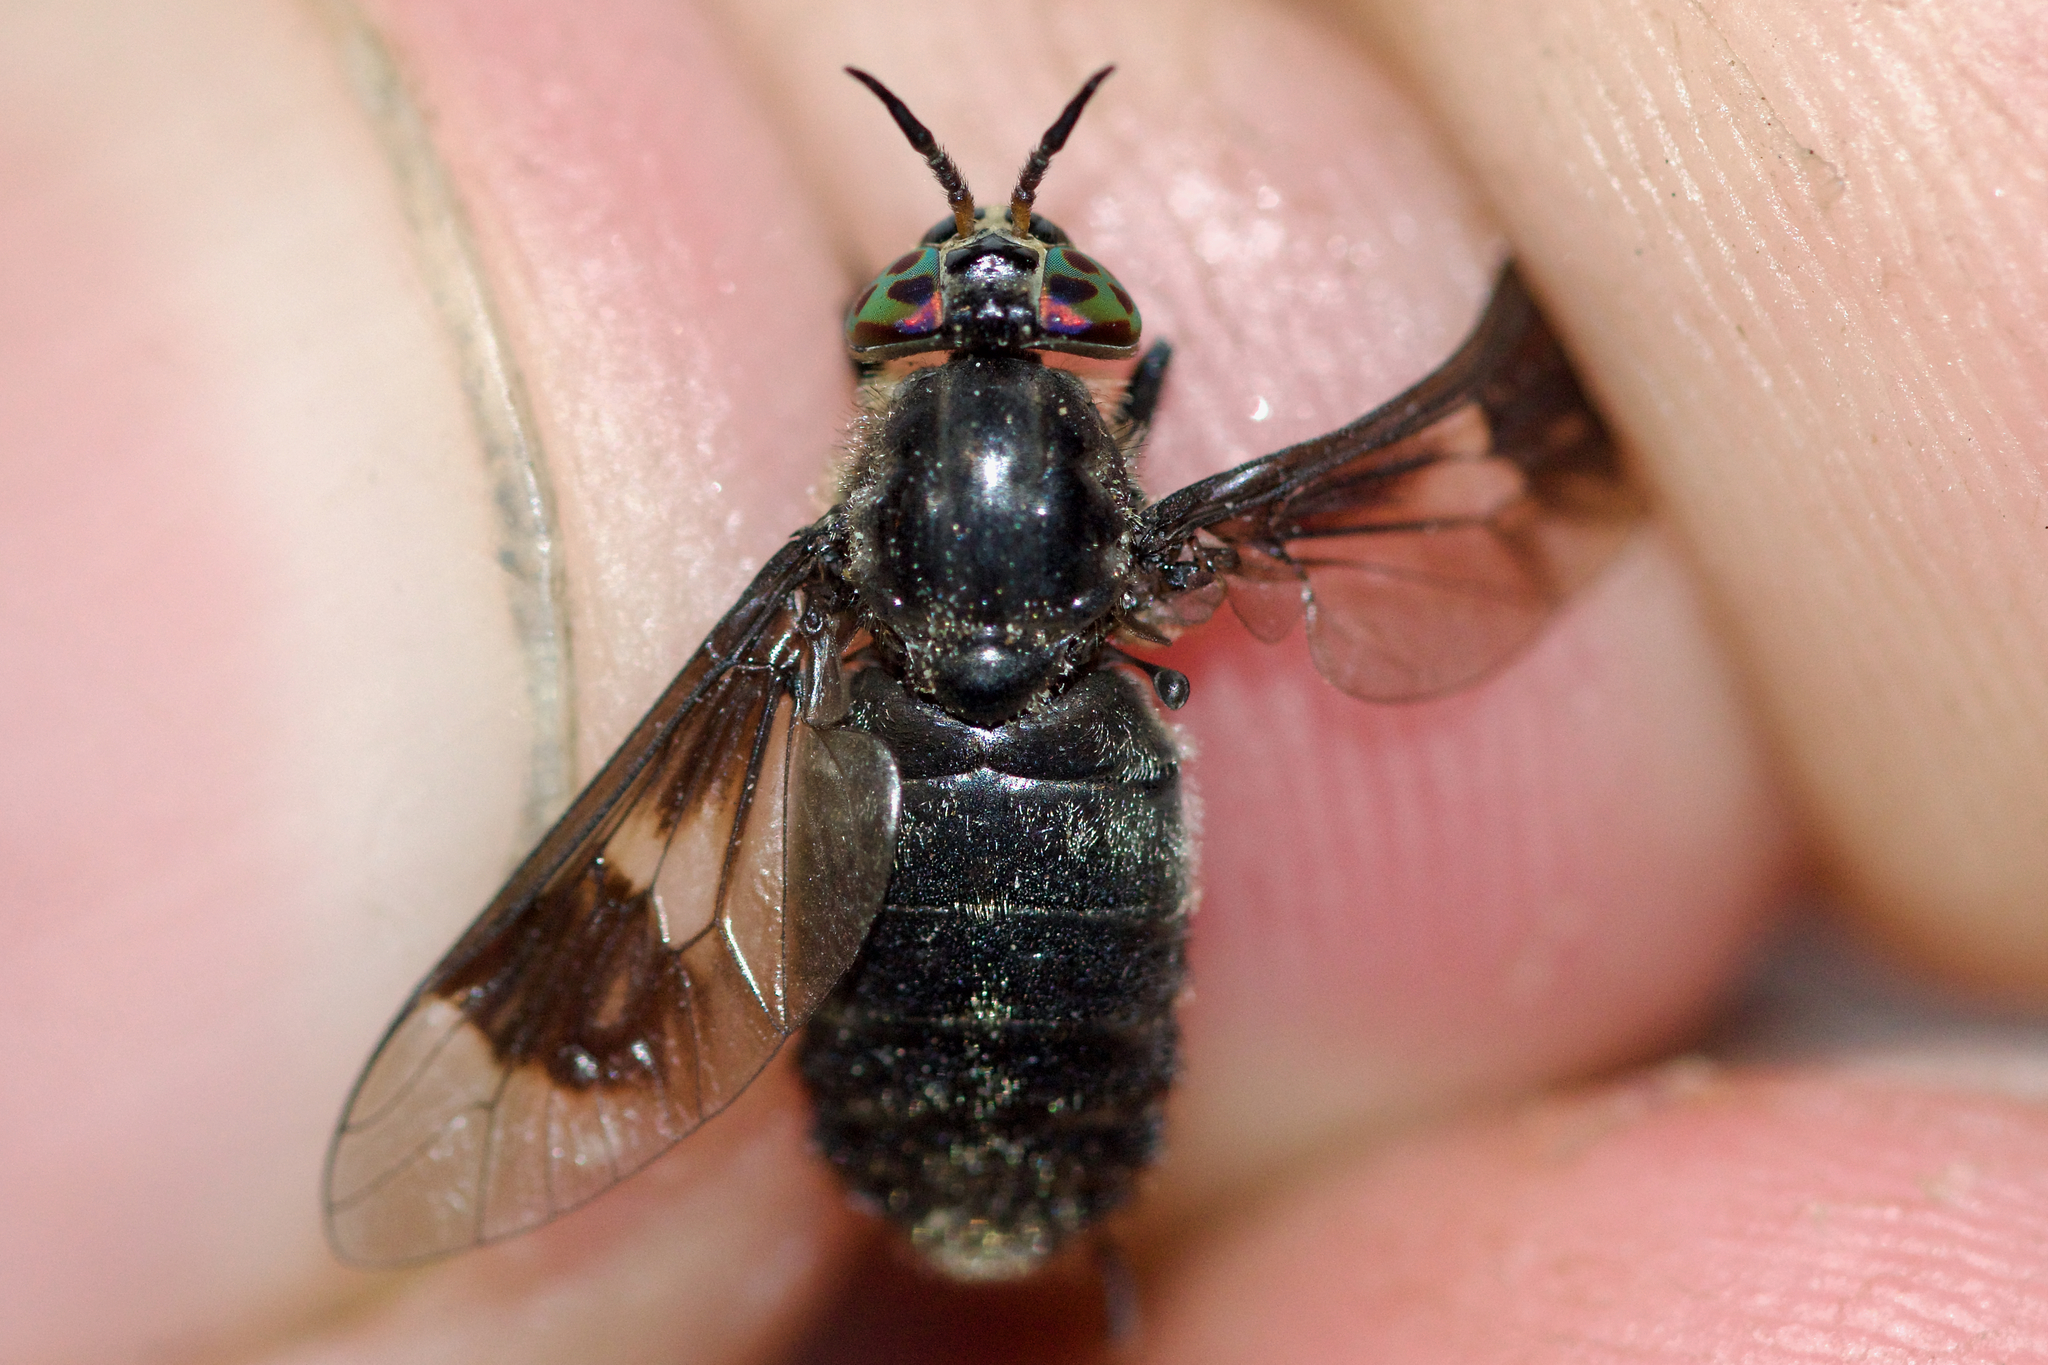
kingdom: Animalia
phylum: Arthropoda
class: Insecta
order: Diptera
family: Tabanidae
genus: Chrysops
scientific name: Chrysops ater
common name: Dark deer fly
